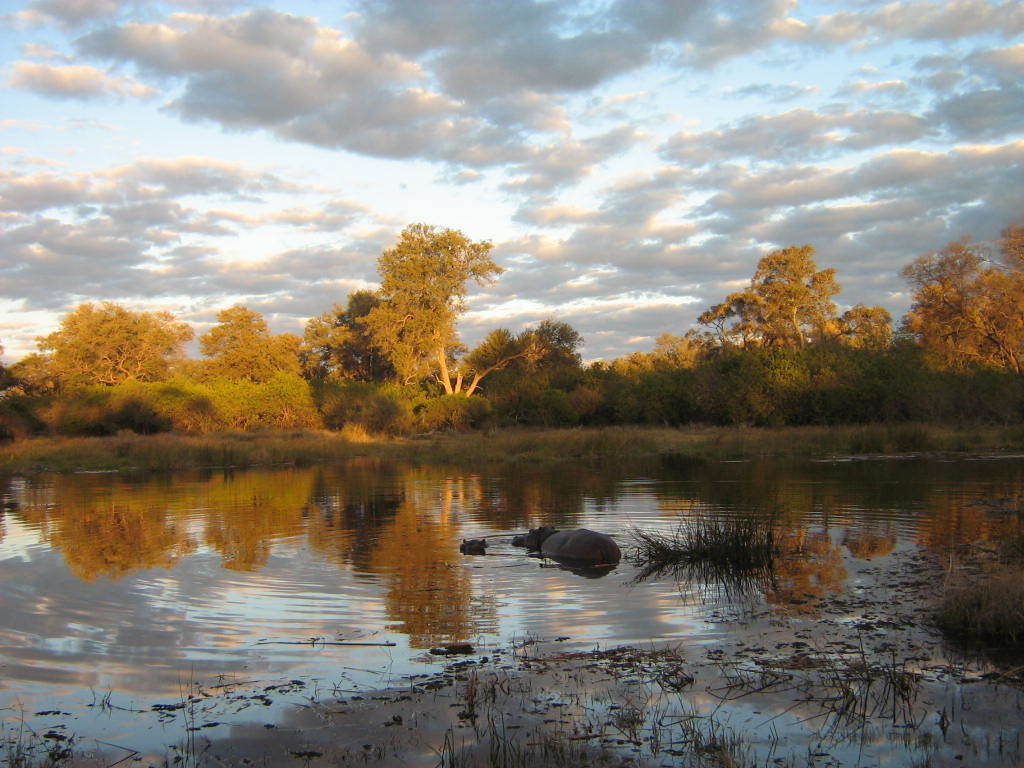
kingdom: Animalia
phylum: Chordata
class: Mammalia
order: Artiodactyla
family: Hippopotamidae
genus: Hippopotamus
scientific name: Hippopotamus amphibius
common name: Common hippopotamus
